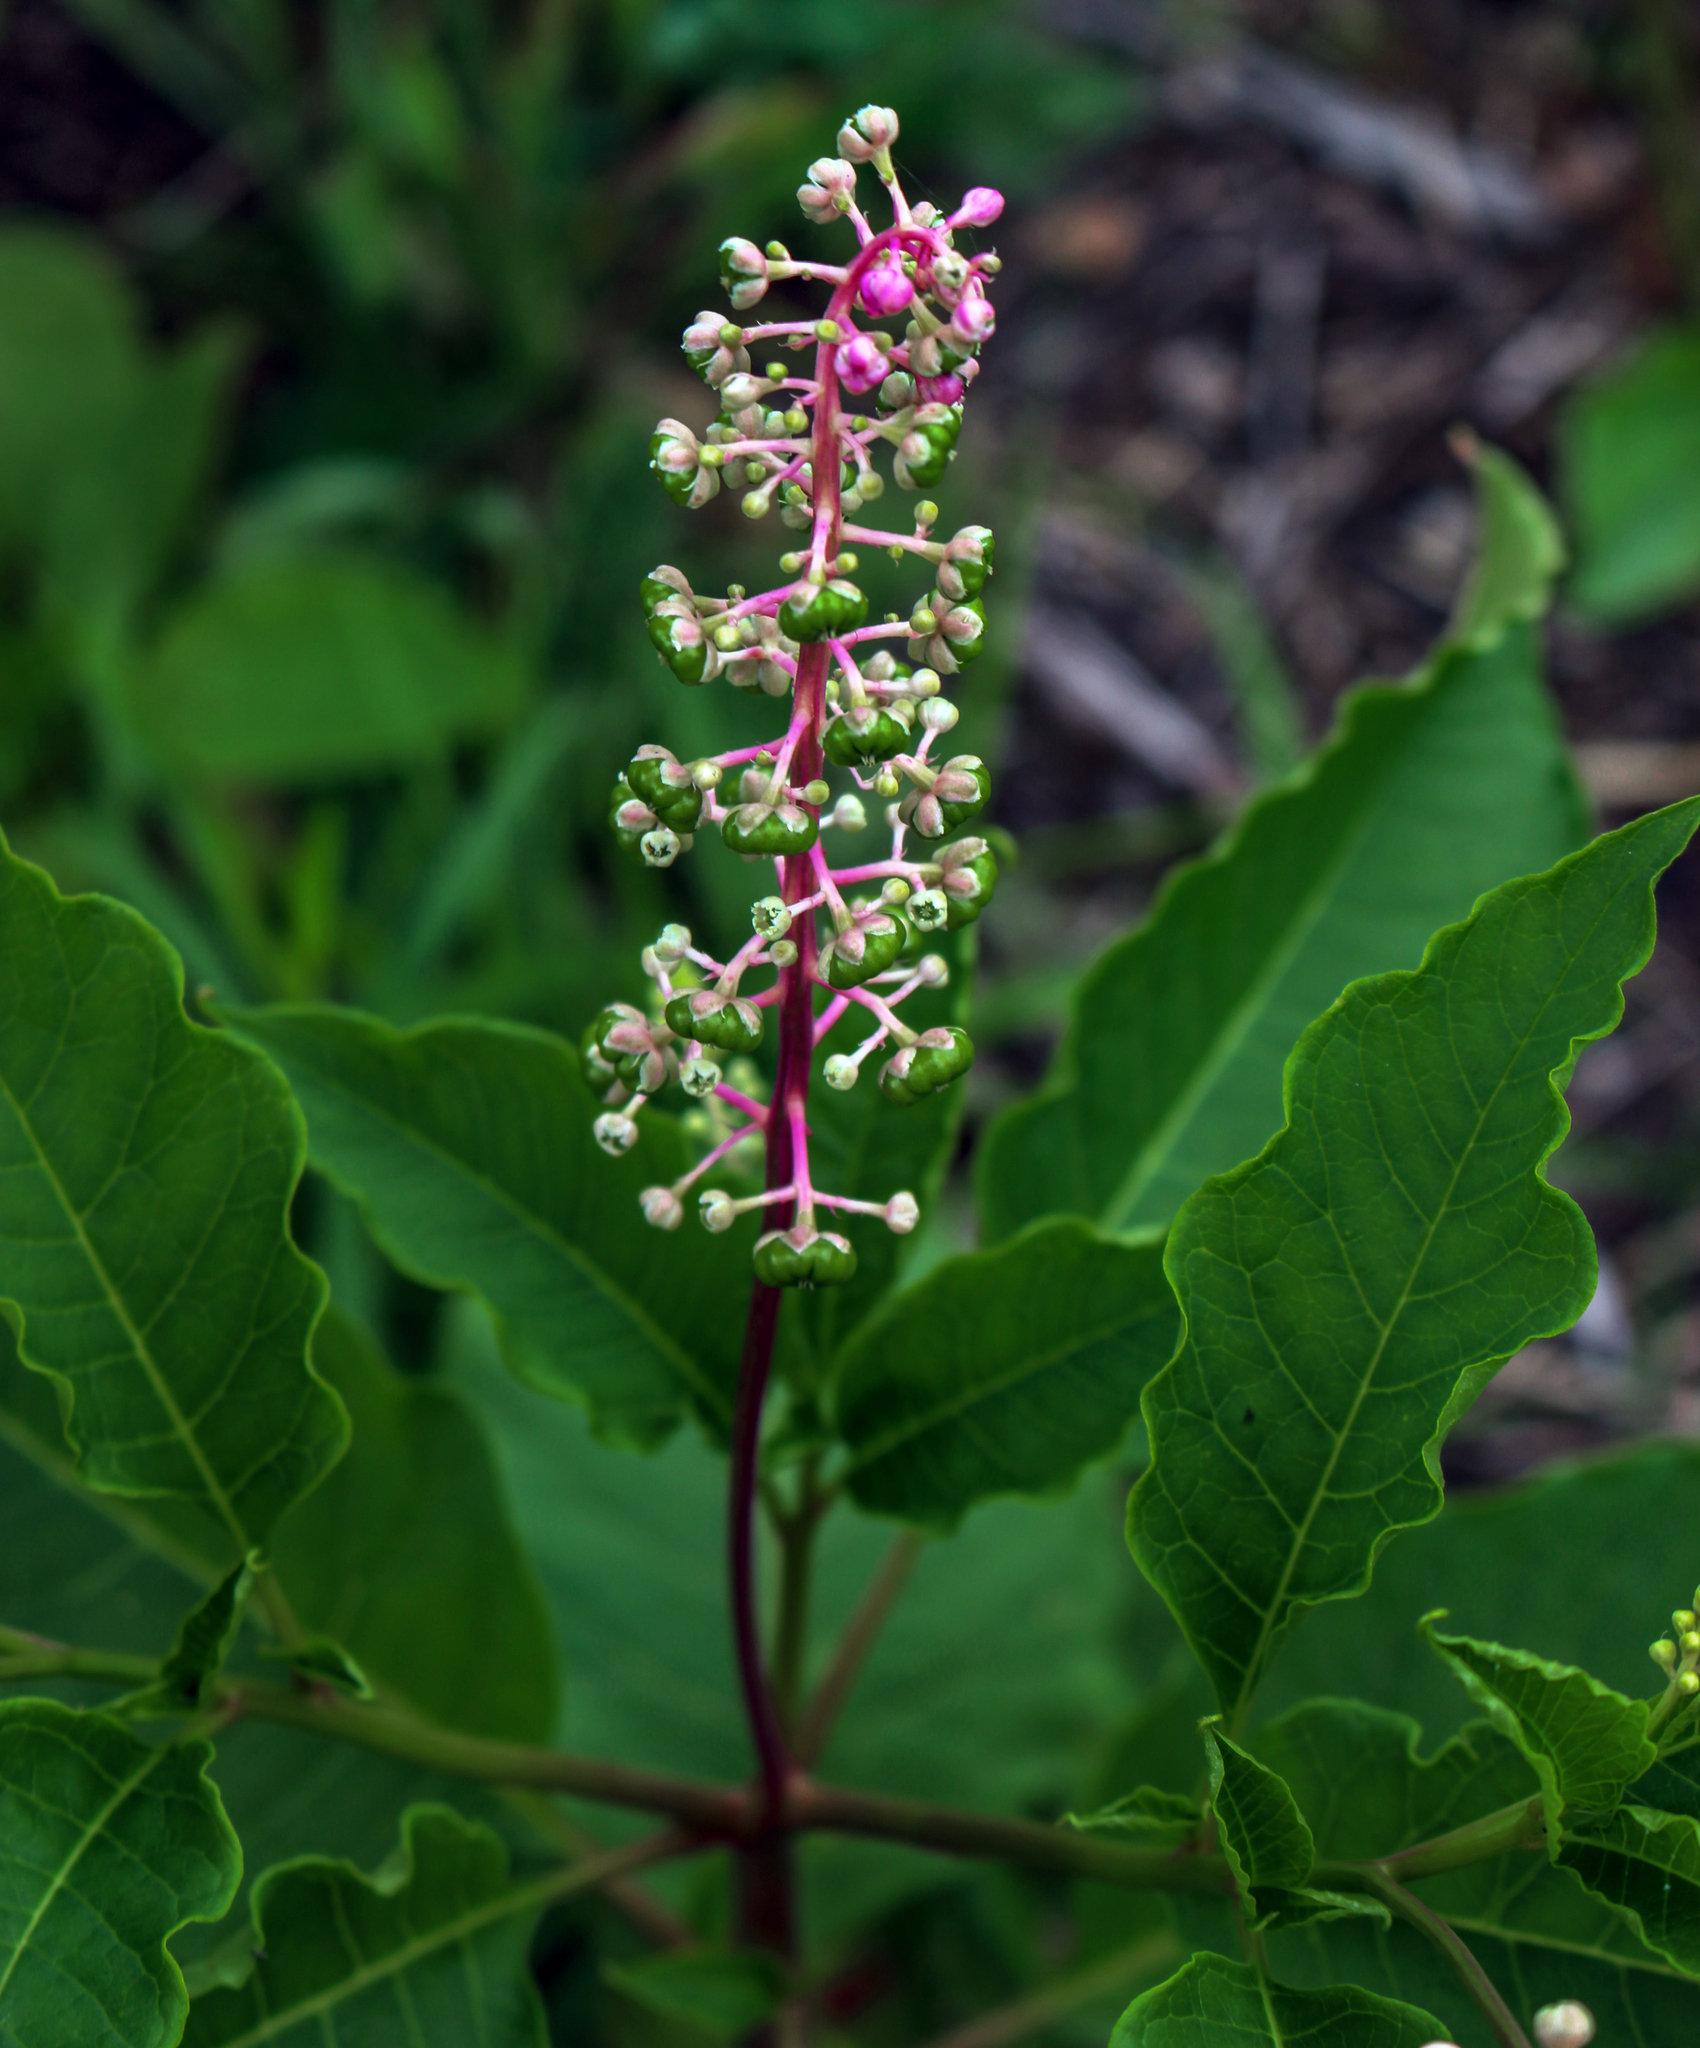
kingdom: Plantae
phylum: Tracheophyta
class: Magnoliopsida
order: Caryophyllales
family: Phytolaccaceae
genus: Phytolacca
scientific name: Phytolacca americana
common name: American pokeweed
